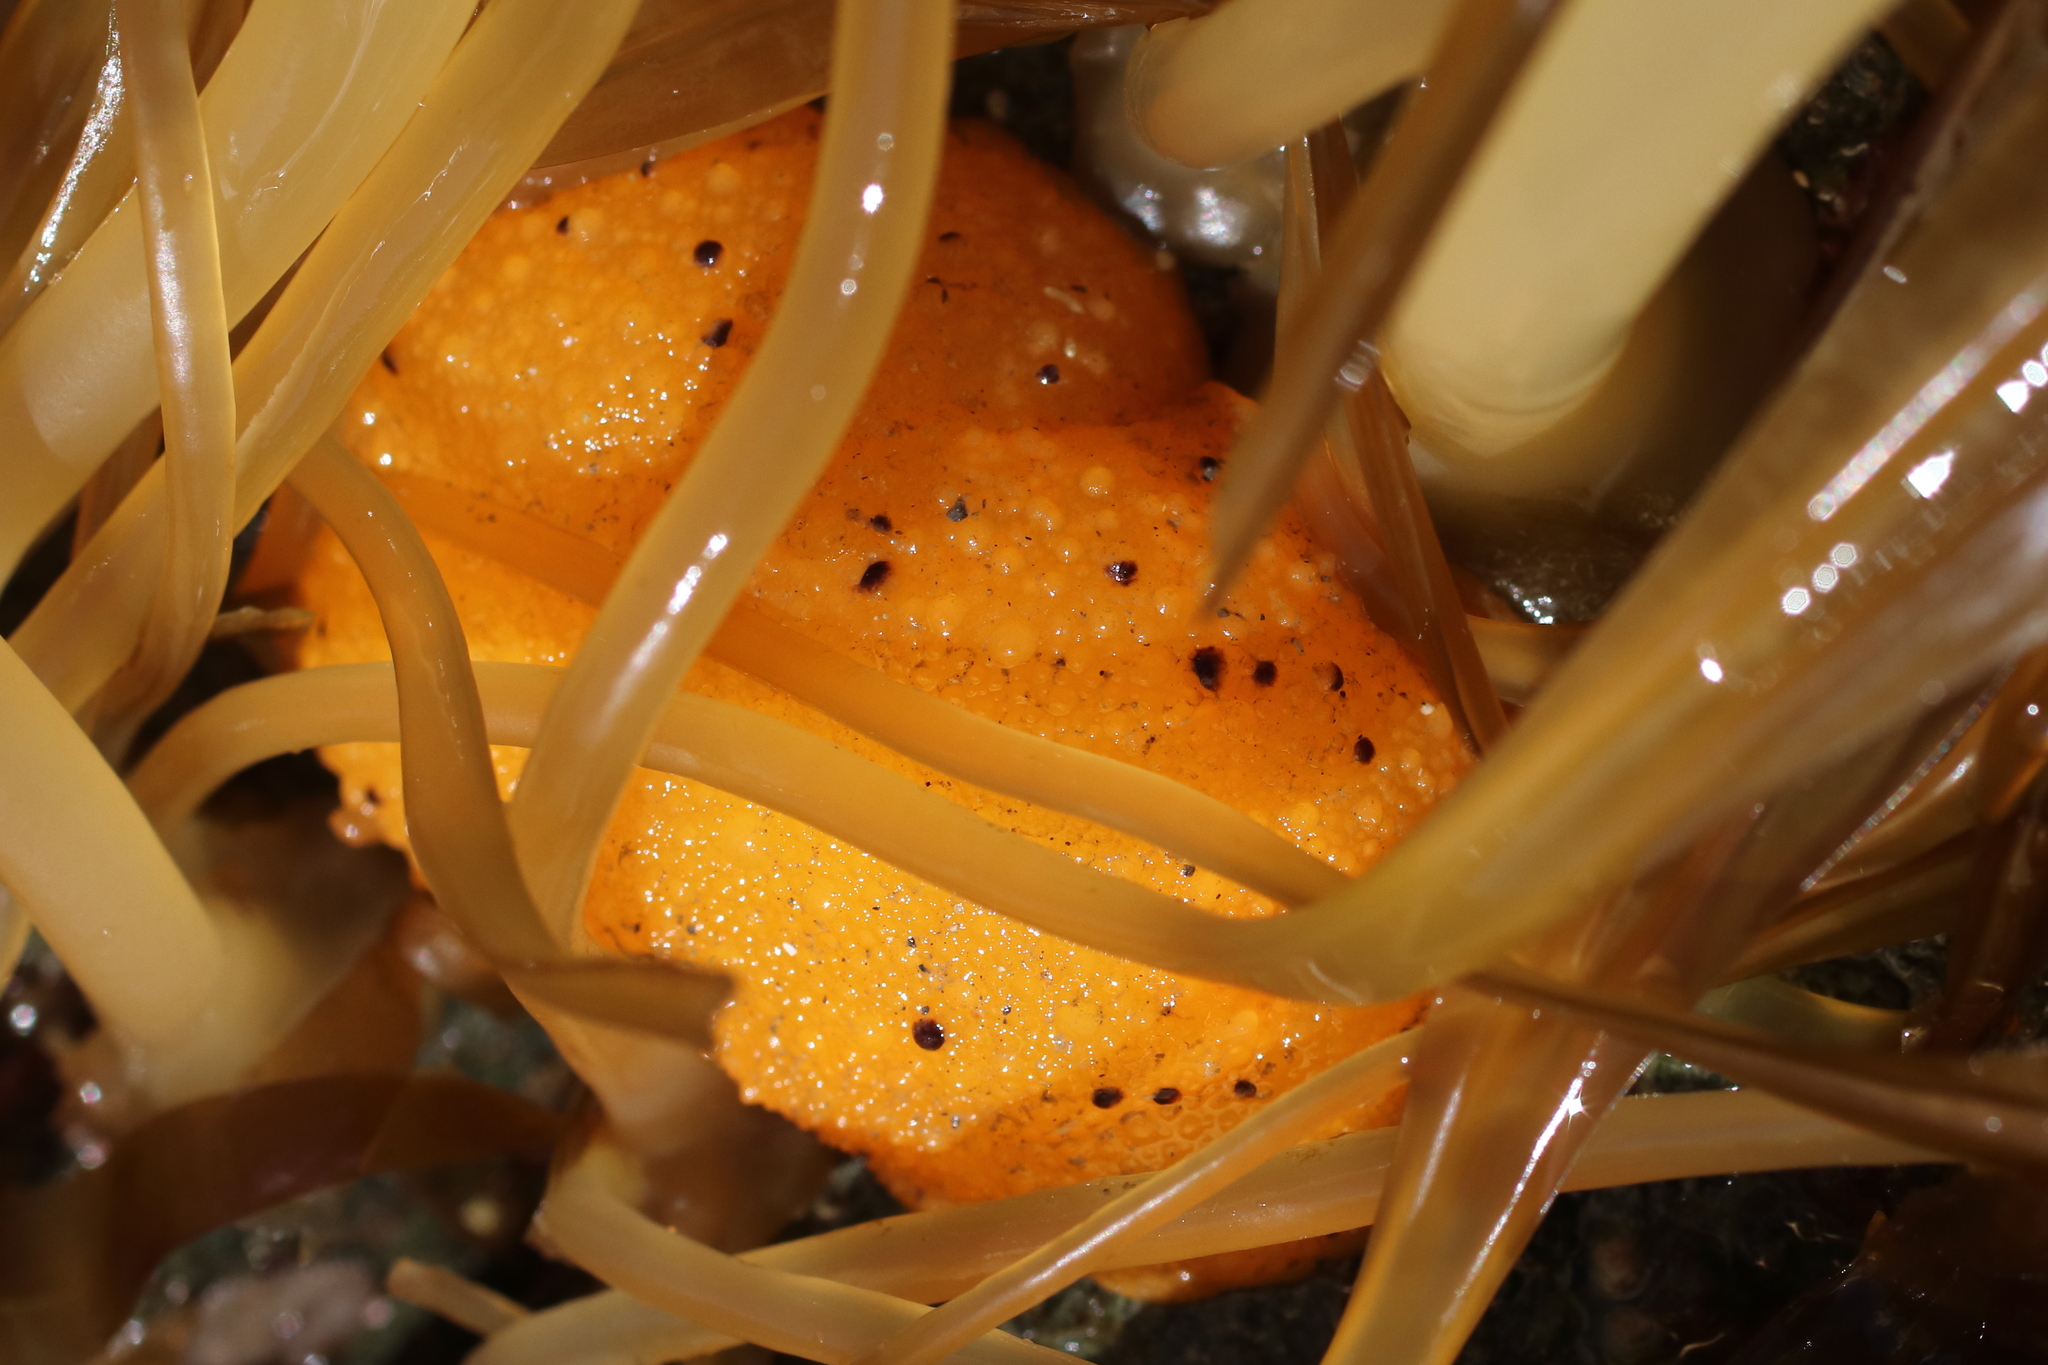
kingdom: Animalia
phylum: Mollusca
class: Gastropoda
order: Nudibranchia
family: Dorididae
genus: Doris
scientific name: Doris montereyensis
